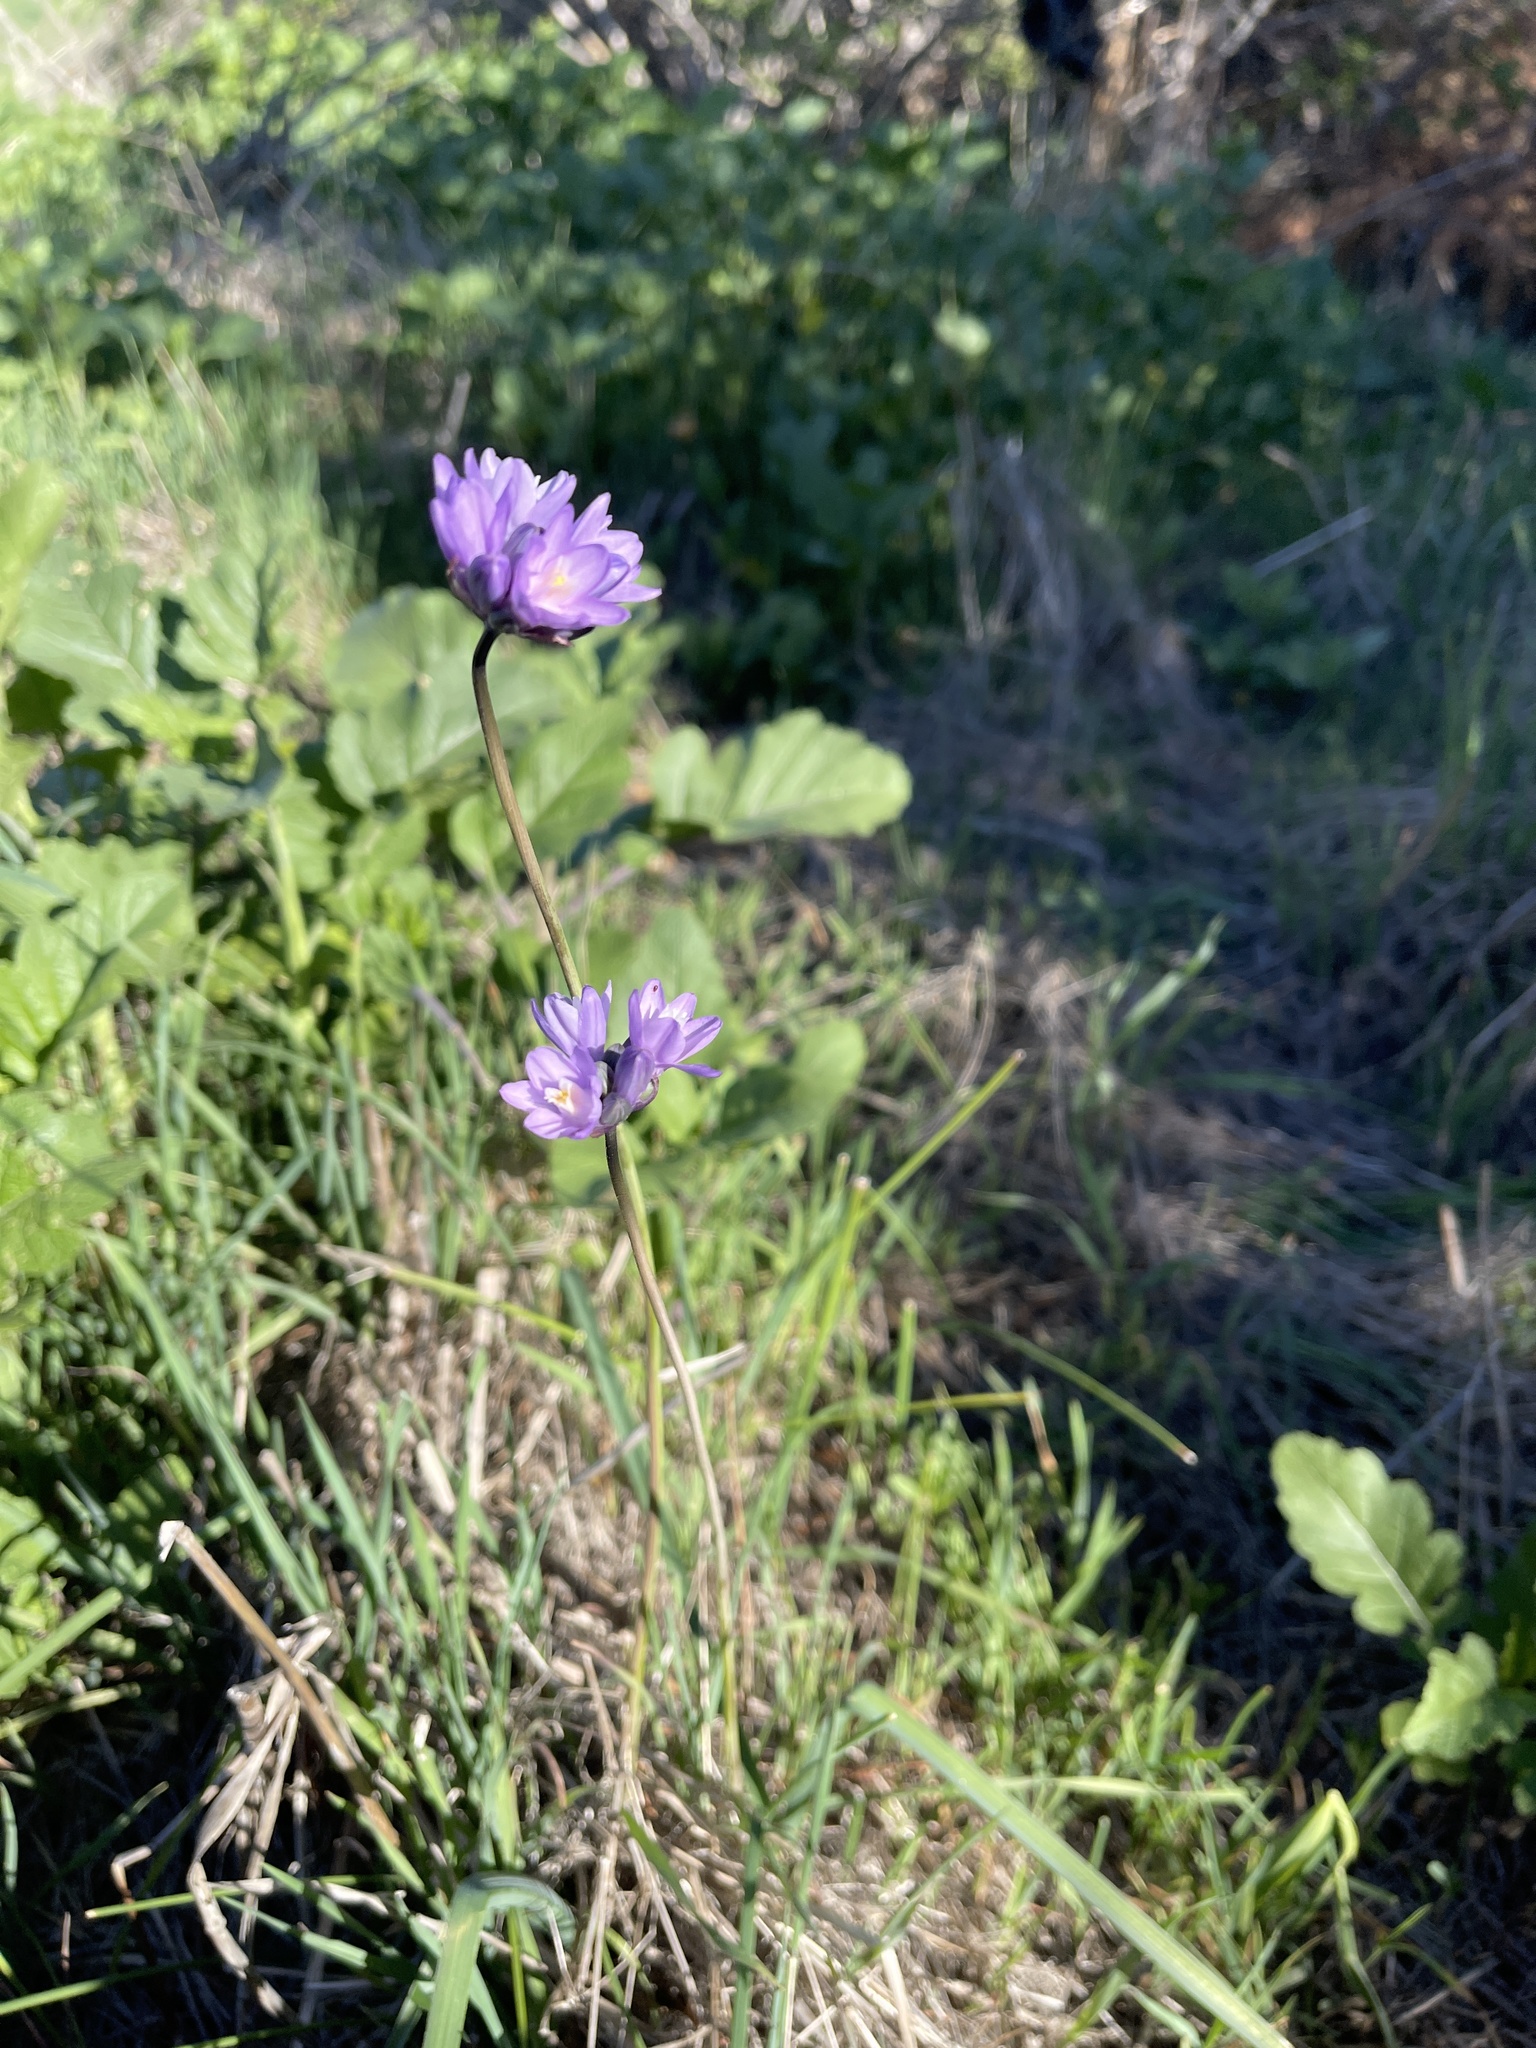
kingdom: Plantae
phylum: Tracheophyta
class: Liliopsida
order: Asparagales
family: Asparagaceae
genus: Dipterostemon
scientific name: Dipterostemon capitatus
